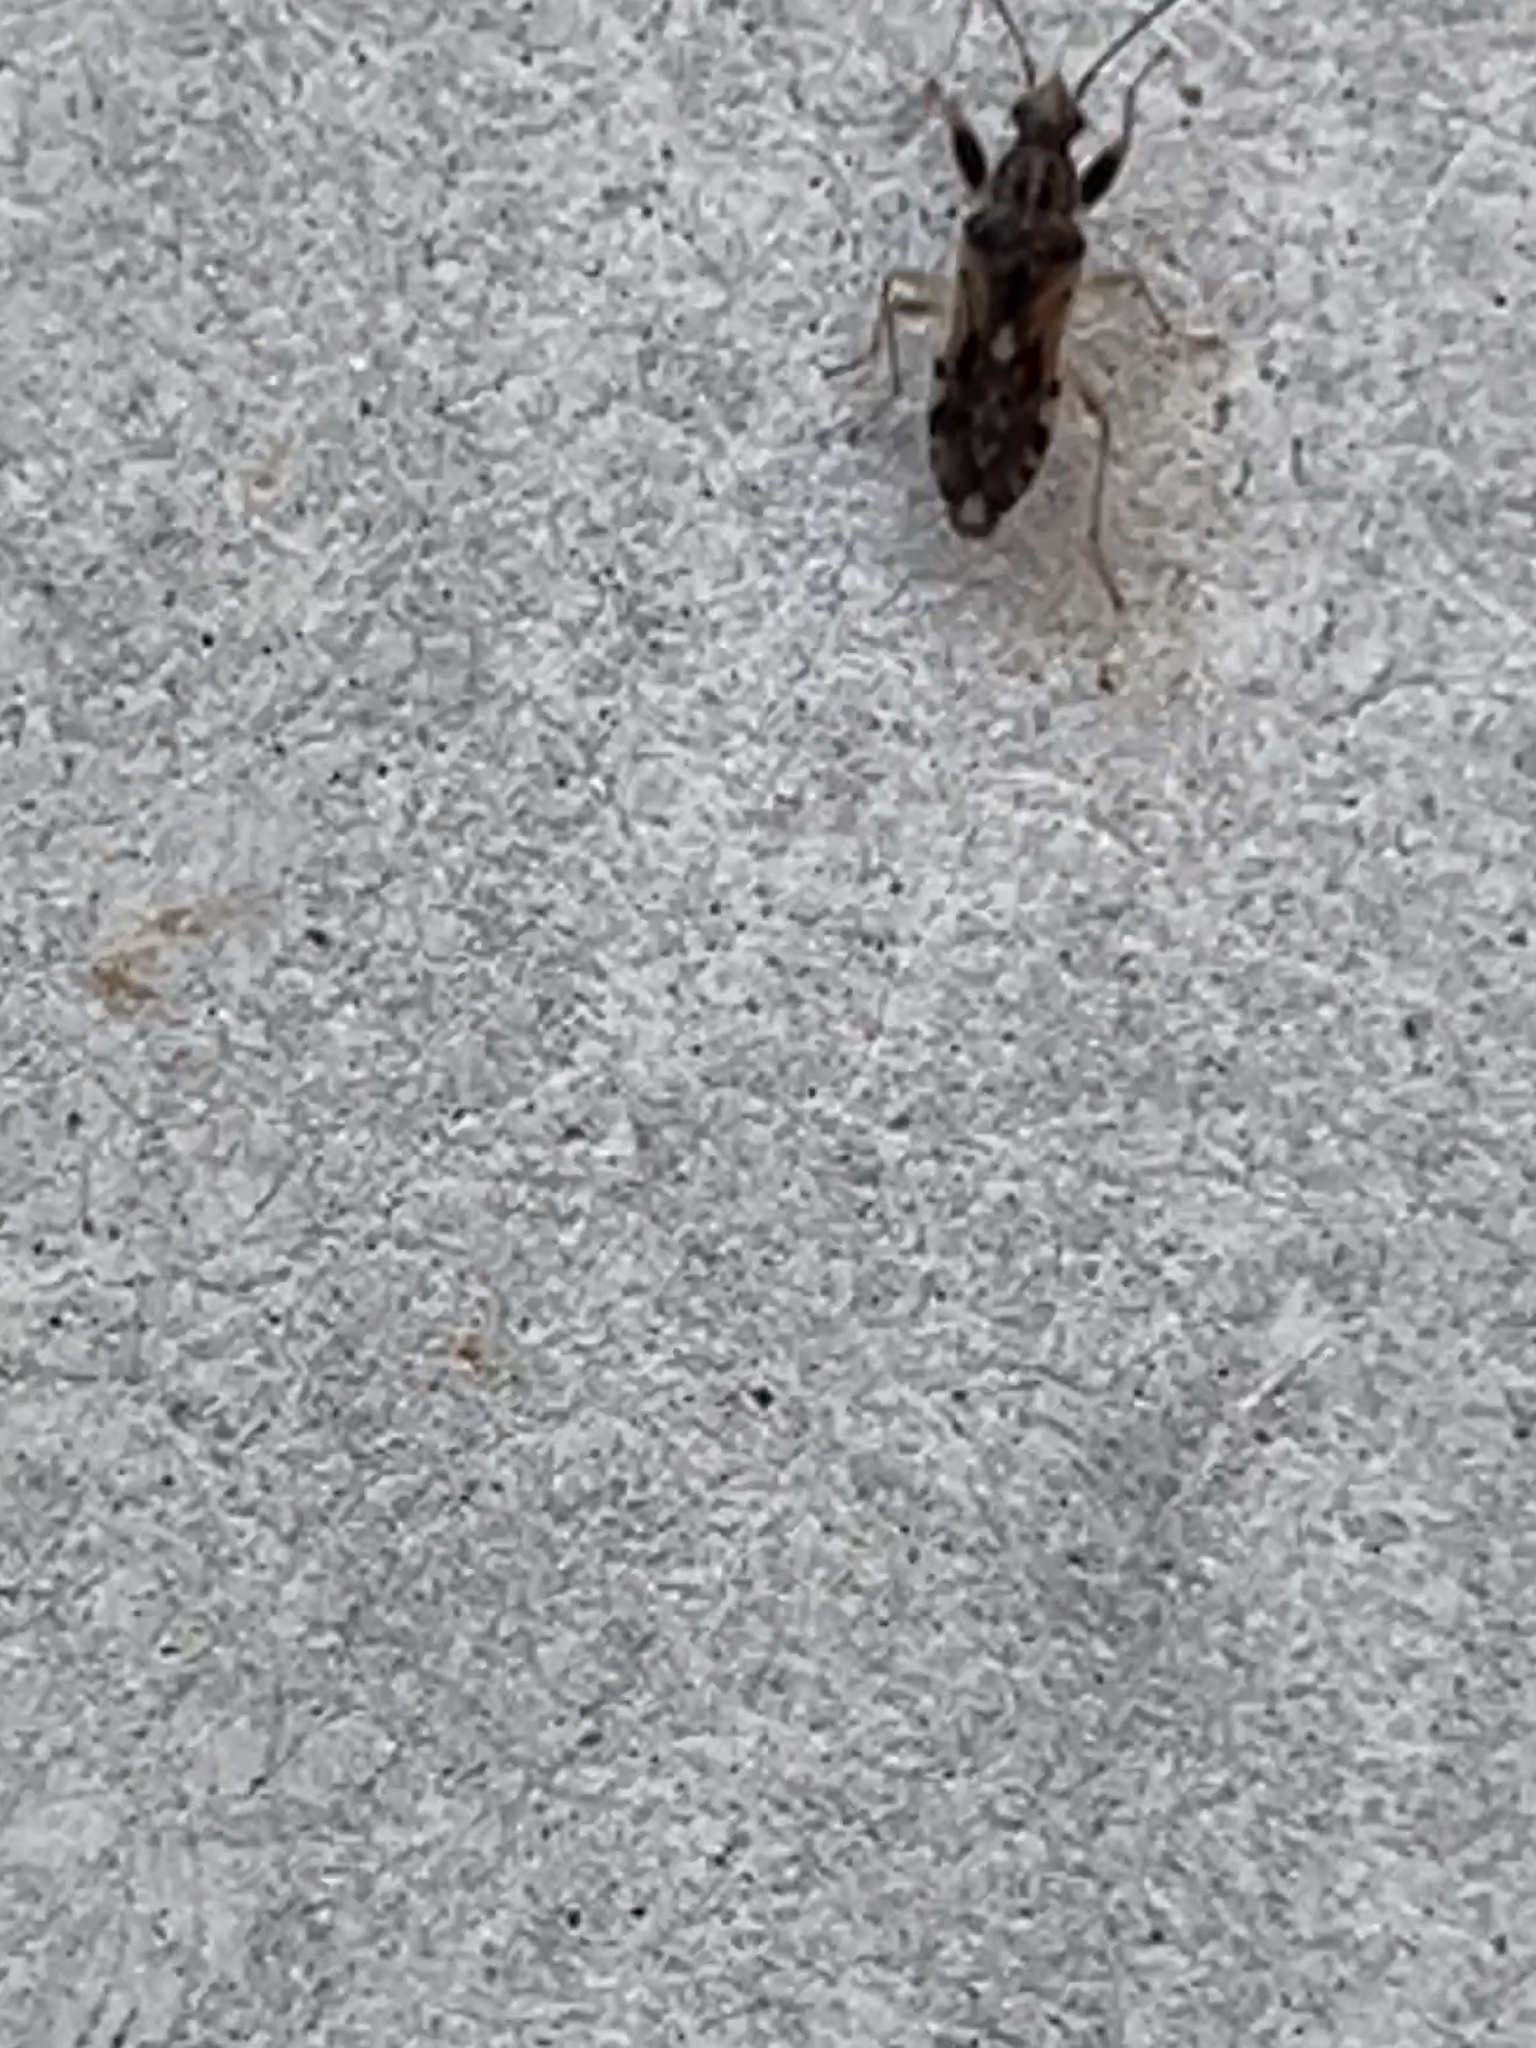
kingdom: Animalia
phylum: Arthropoda
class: Insecta
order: Hemiptera
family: Rhyparochromidae
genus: Remaudiereana
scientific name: Remaudiereana inornatus
